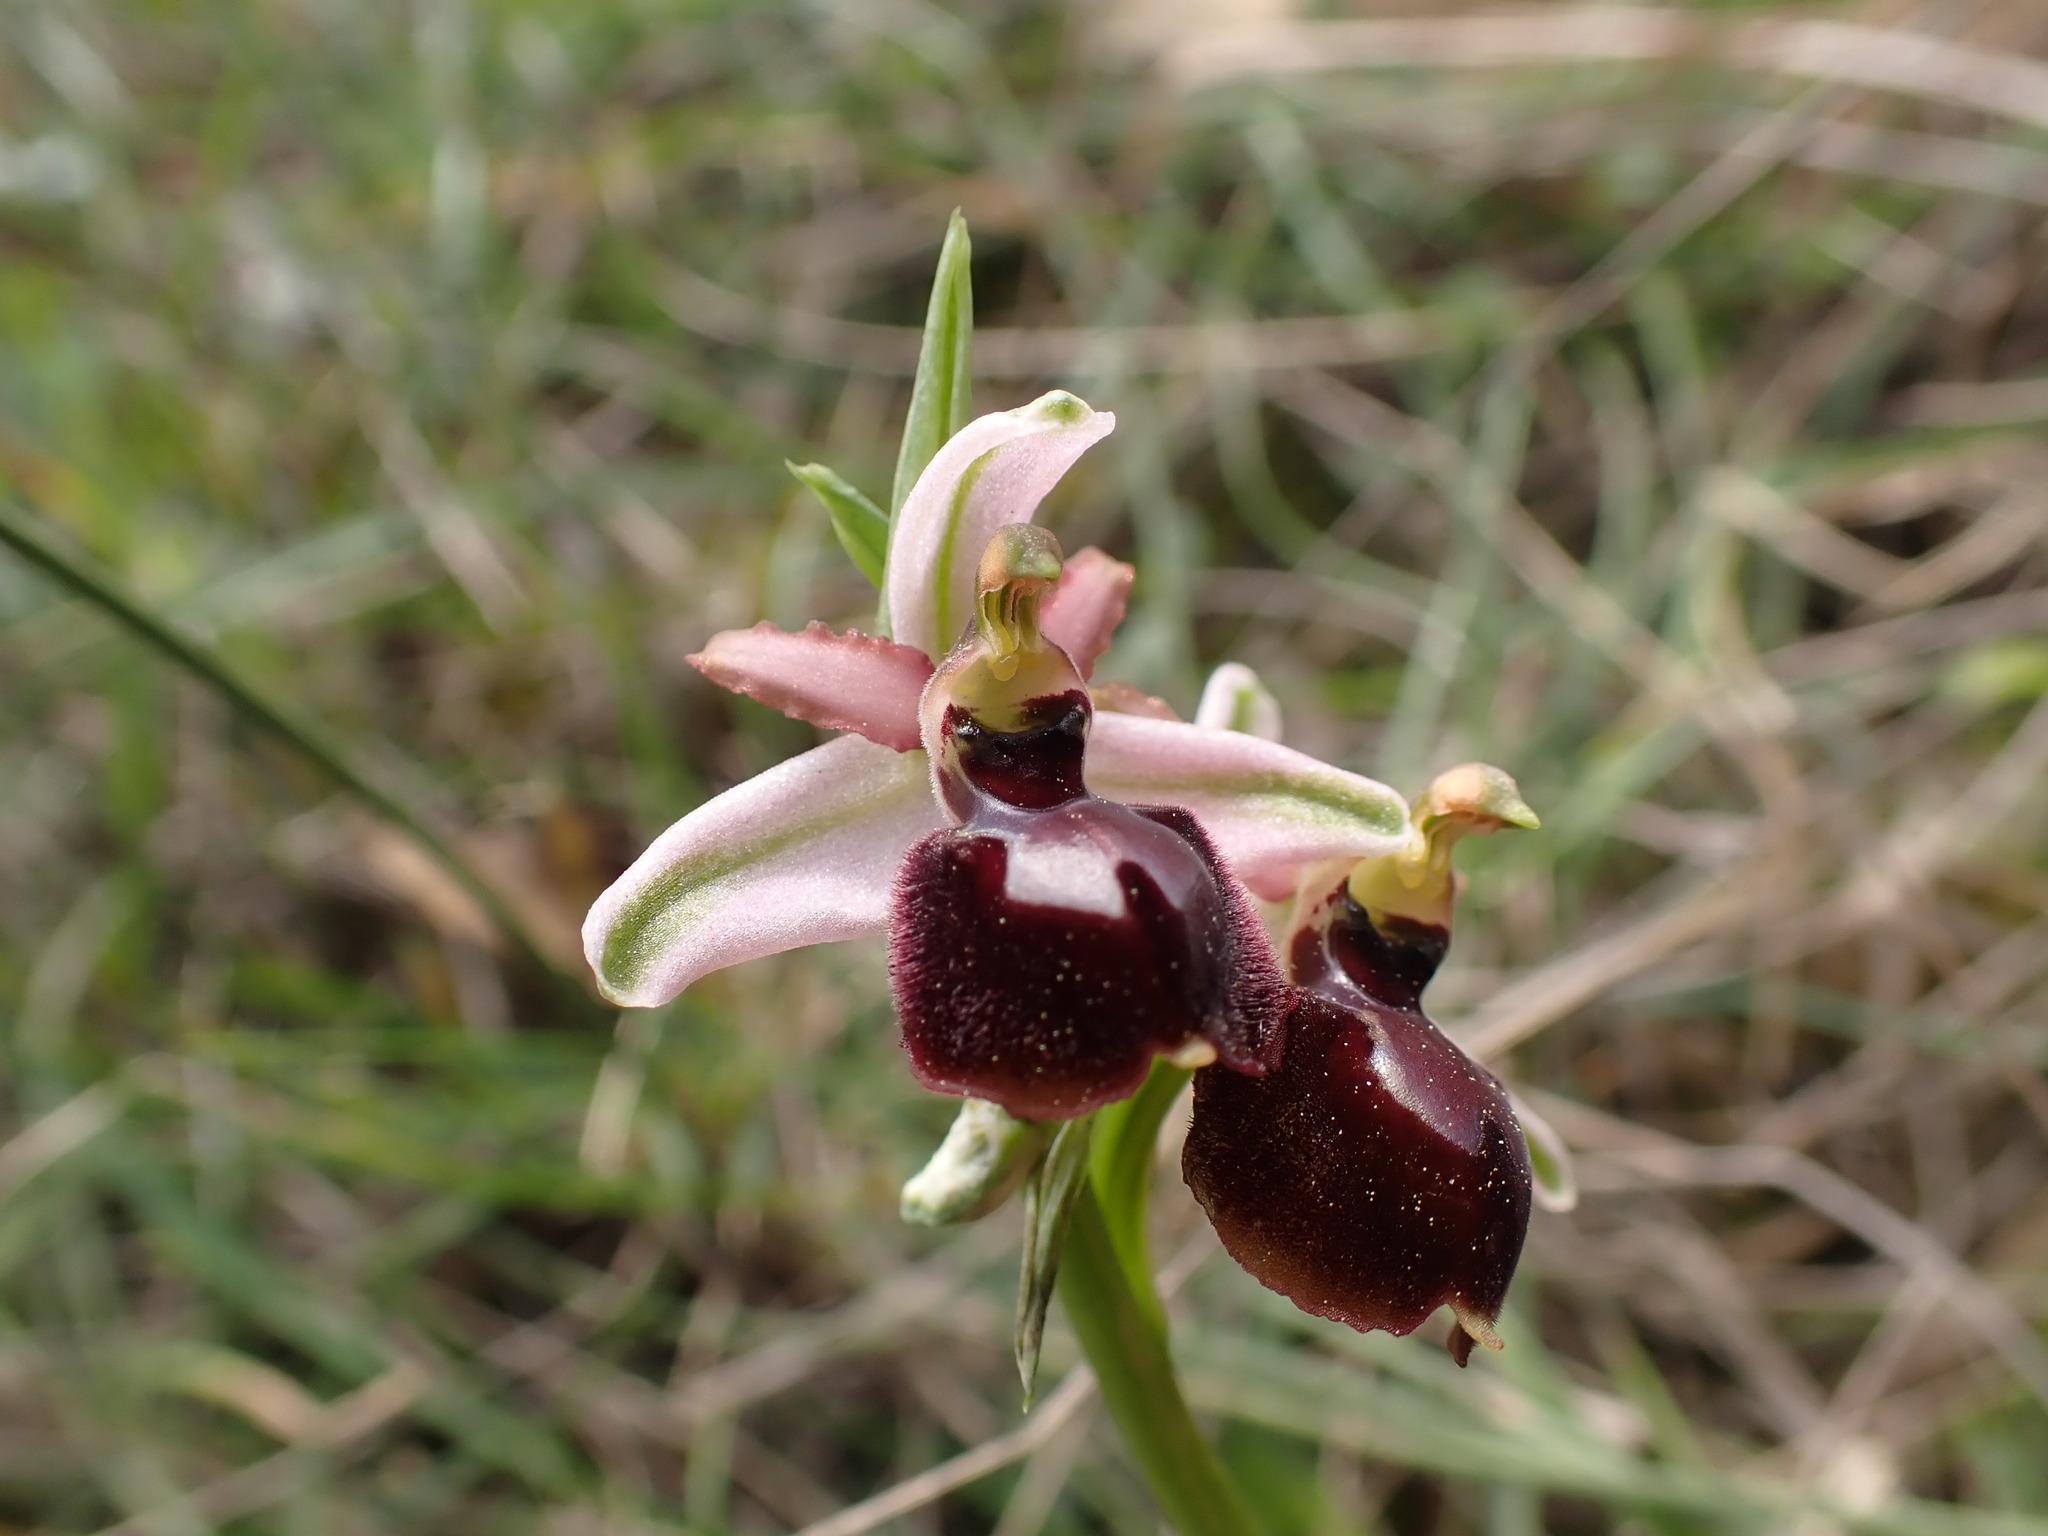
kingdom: Plantae
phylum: Tracheophyta
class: Liliopsida
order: Asparagales
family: Orchidaceae
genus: Ophrys
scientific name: Ophrys sphegodes
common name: Early spider-orchid
